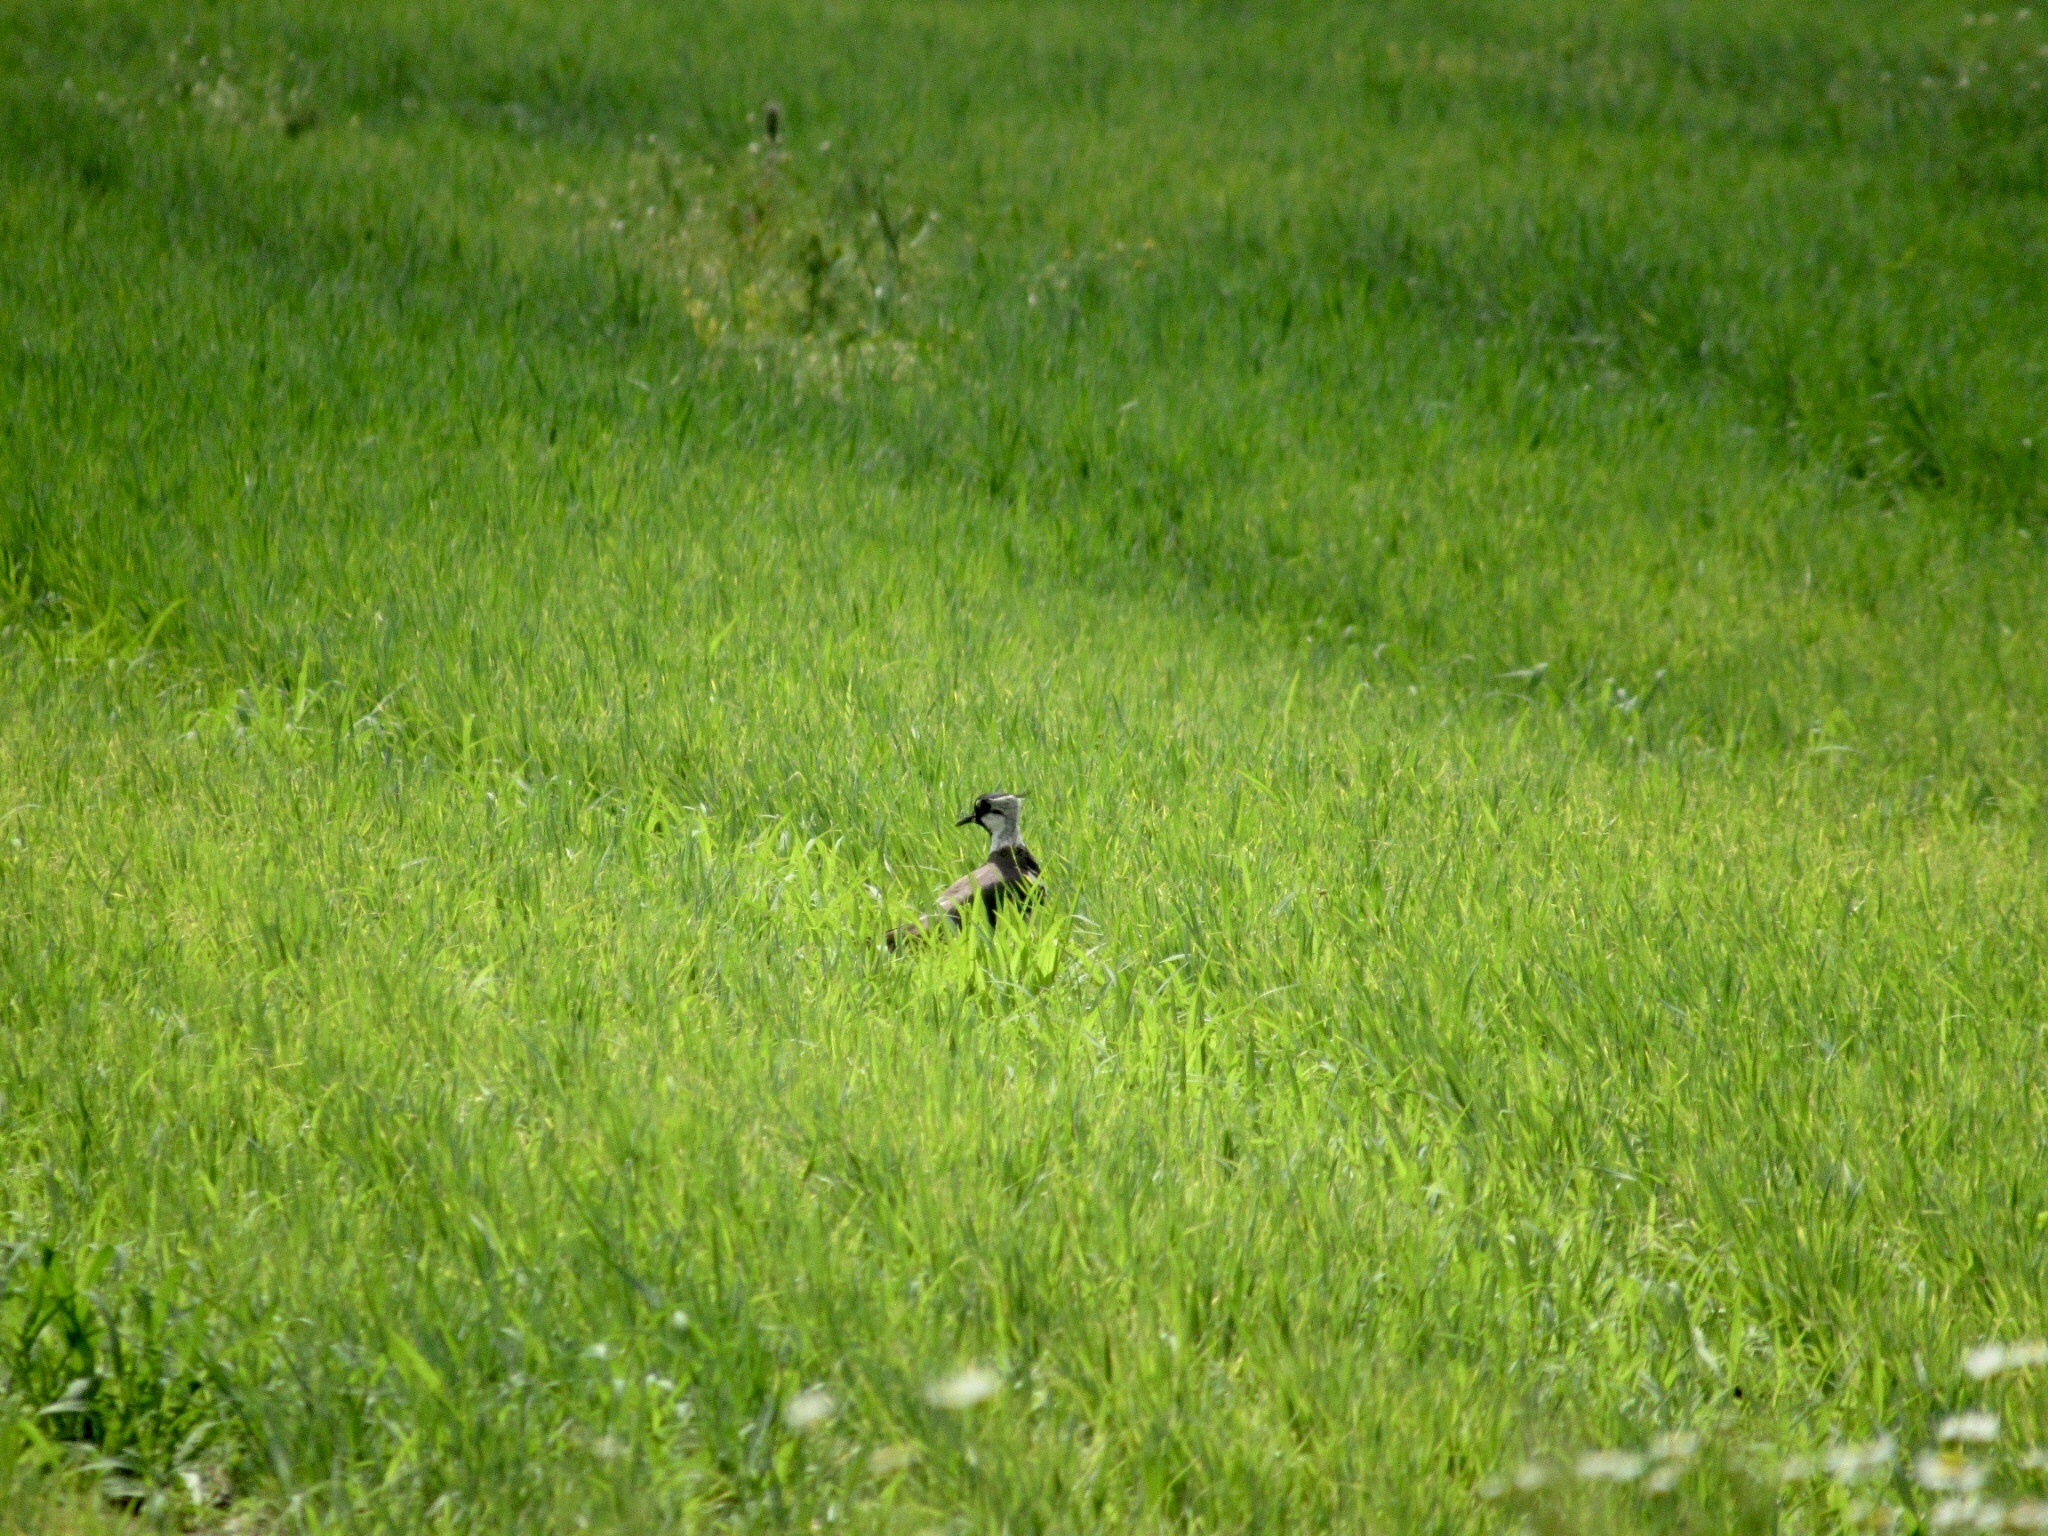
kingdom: Animalia
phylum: Chordata
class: Aves
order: Charadriiformes
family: Charadriidae
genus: Vanellus
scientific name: Vanellus vanellus
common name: Northern lapwing
